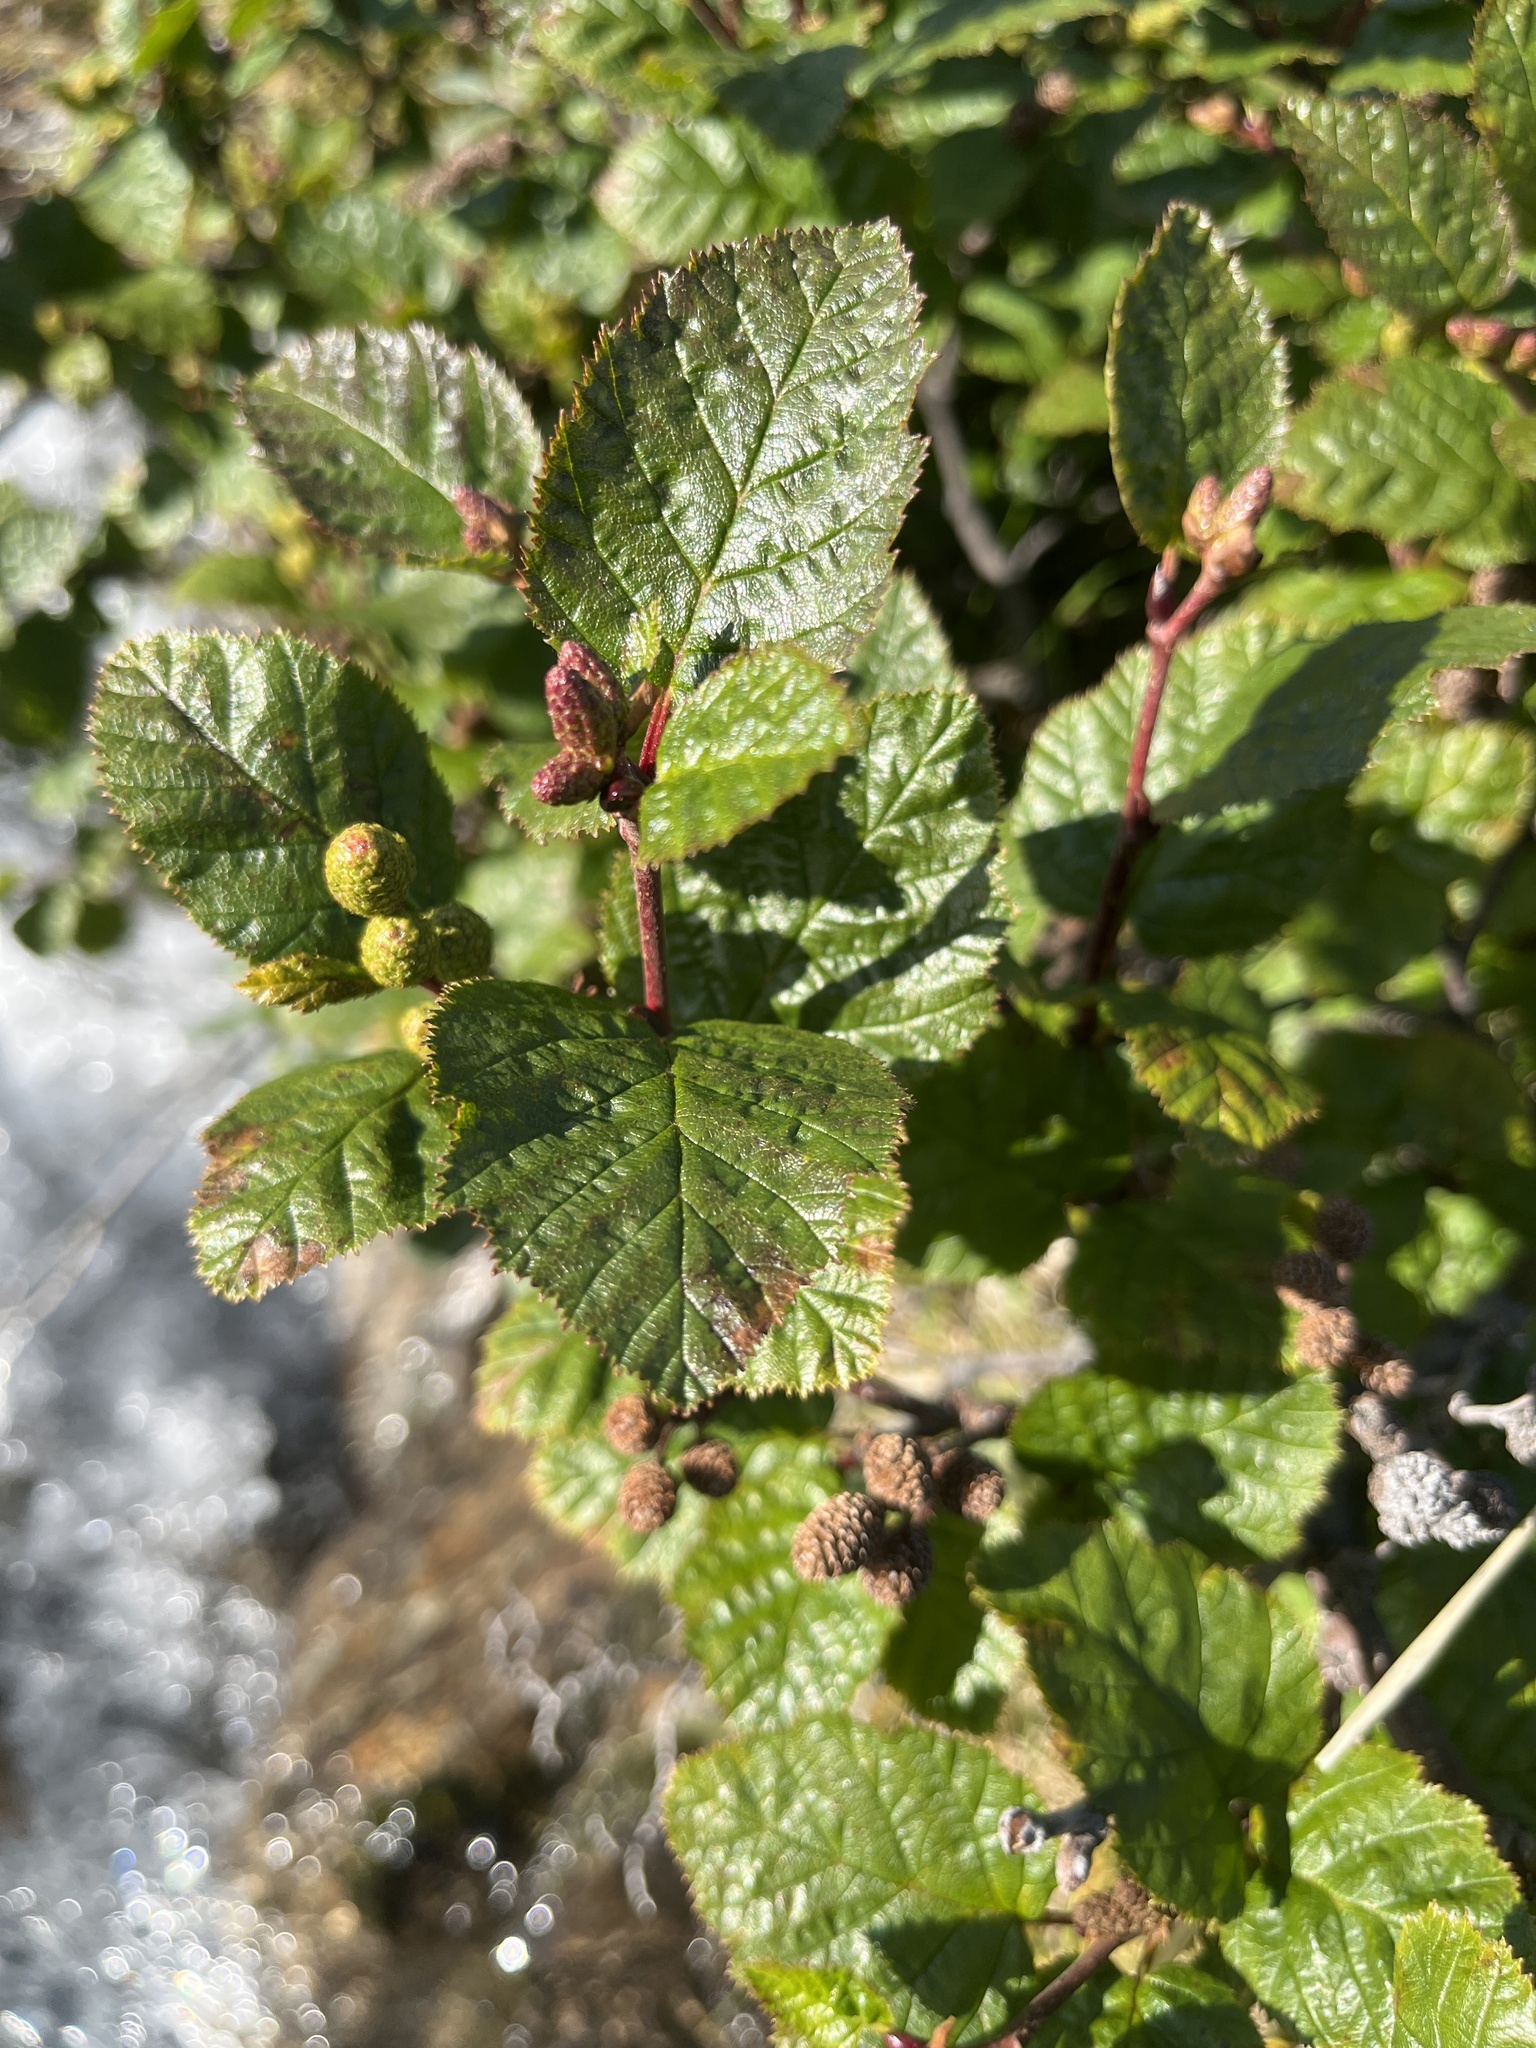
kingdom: Plantae
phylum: Tracheophyta
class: Magnoliopsida
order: Fagales
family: Betulaceae
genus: Alnus
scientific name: Alnus alnobetula
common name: Green alder
